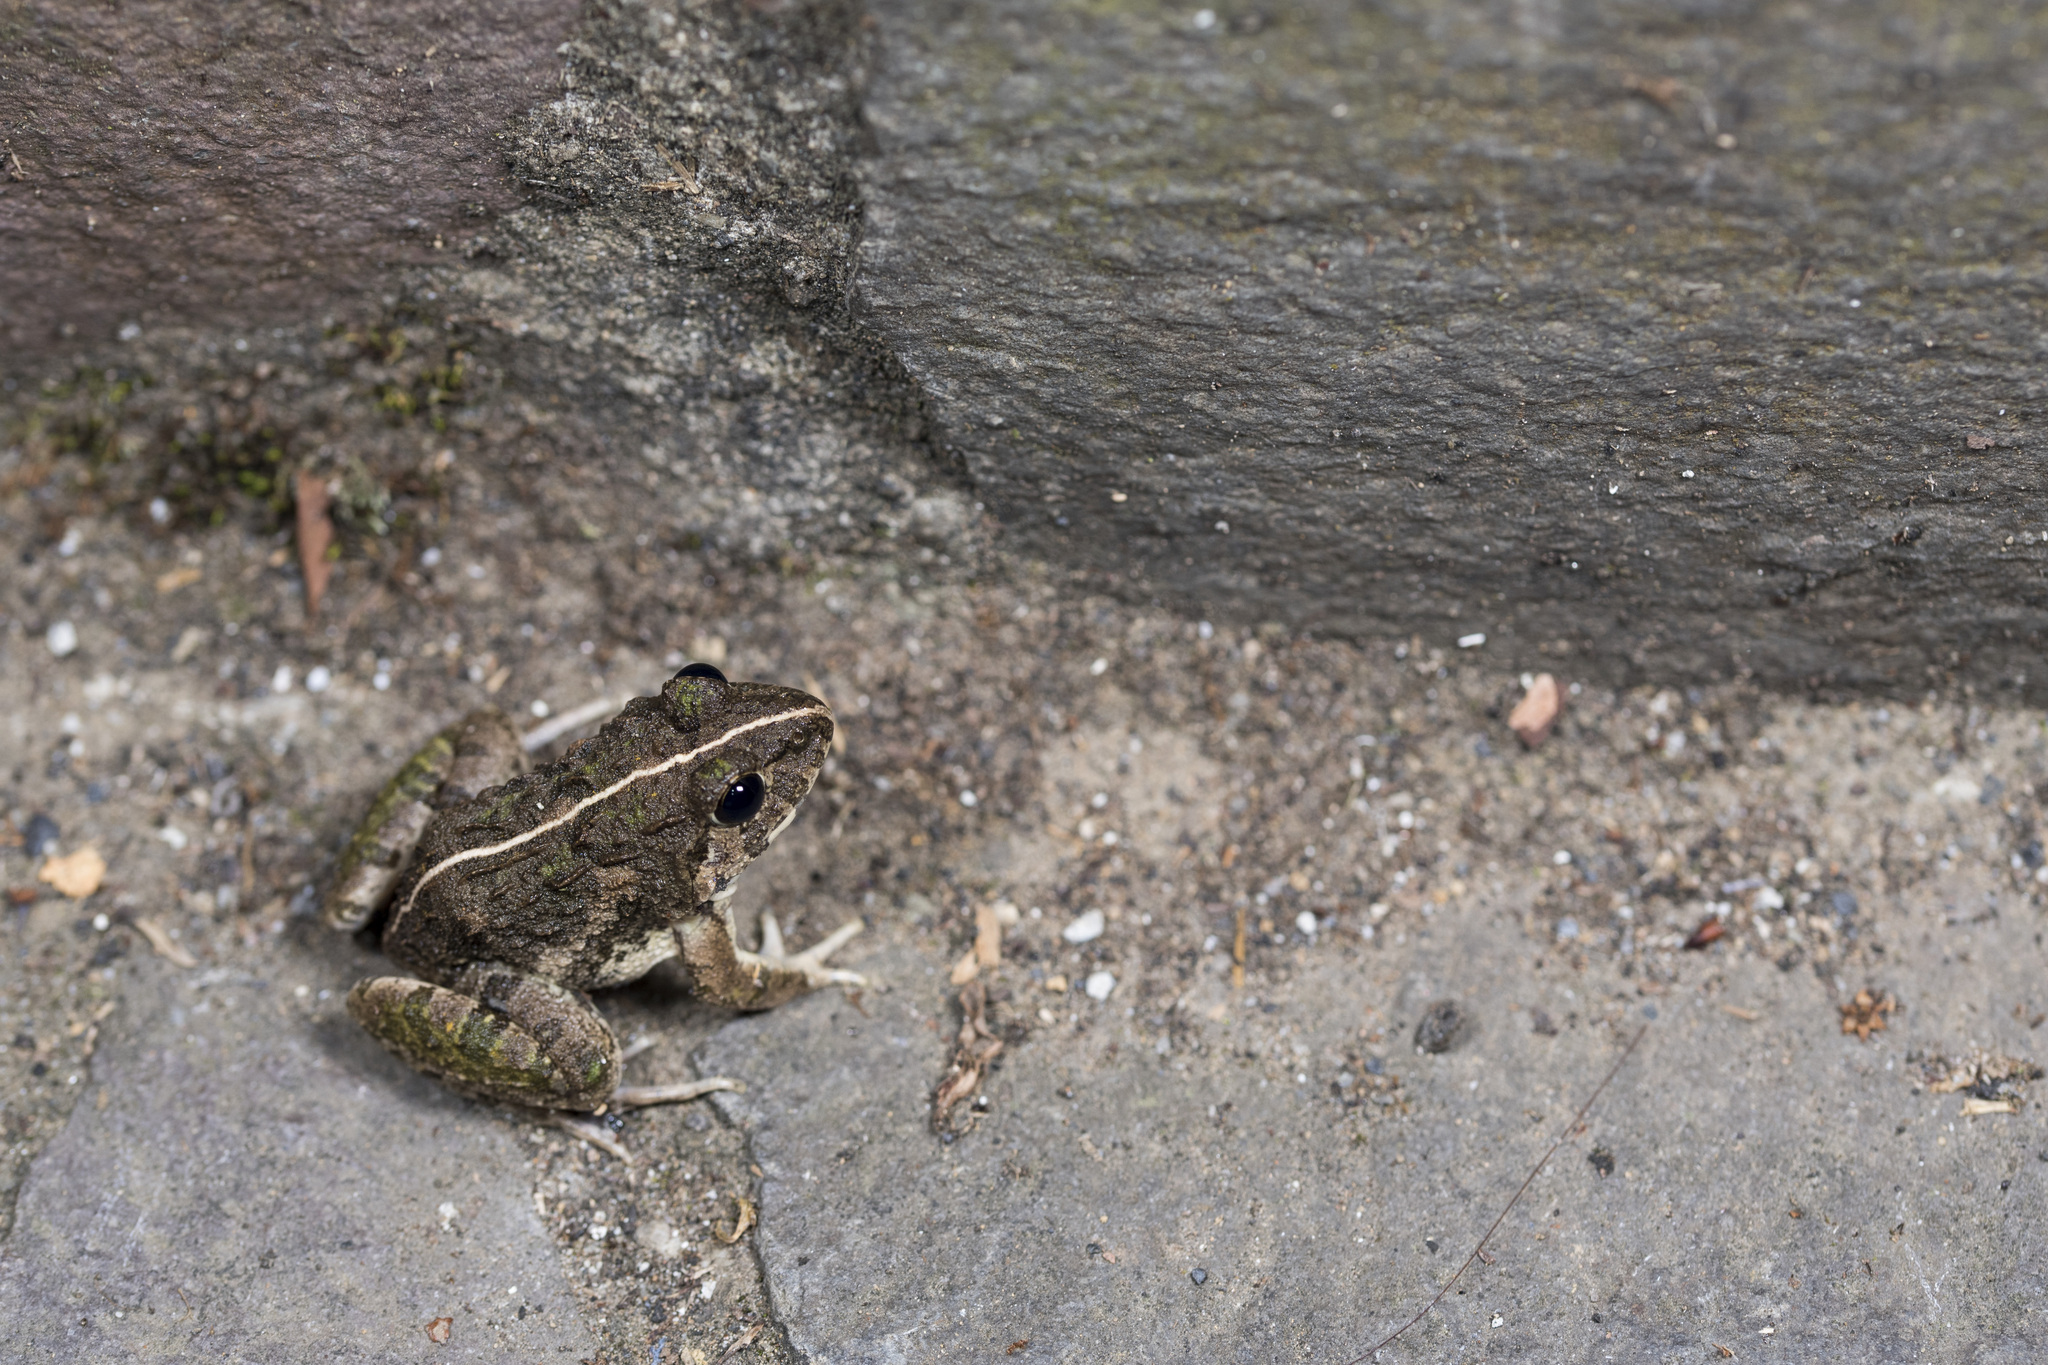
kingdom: Animalia
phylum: Chordata
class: Amphibia
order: Anura
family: Dicroglossidae
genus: Fejervarya
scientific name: Fejervarya limnocharis
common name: Asian grass frog/common pond frog/field frog/grass frog/indian rice frog
